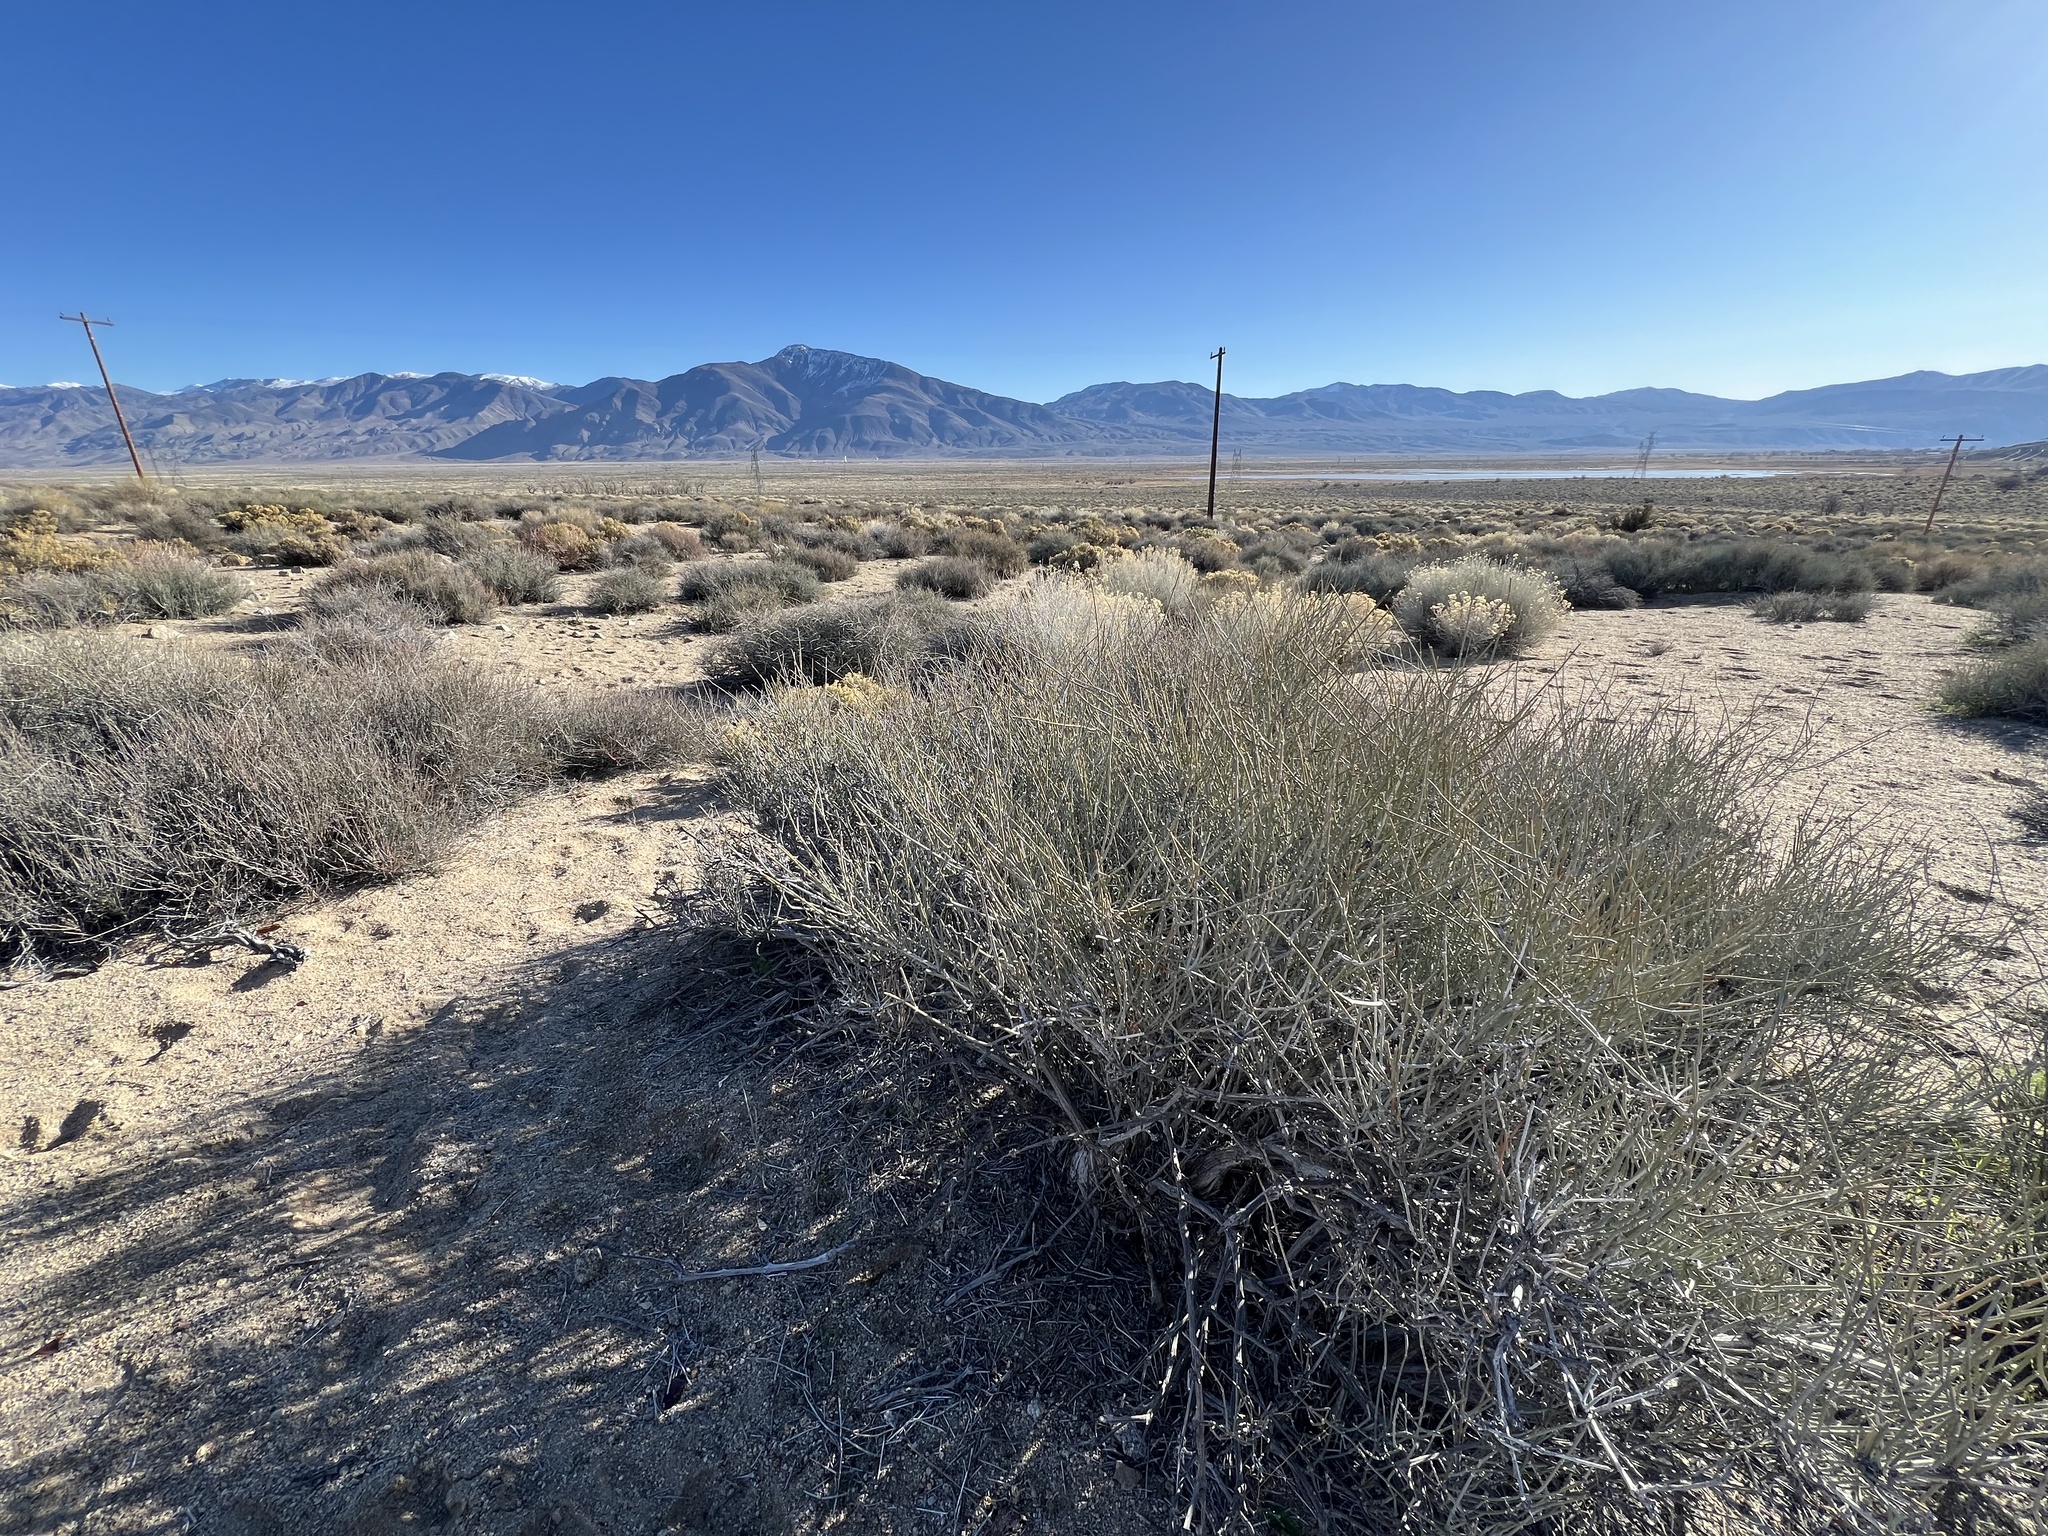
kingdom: Plantae
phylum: Tracheophyta
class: Gnetopsida
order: Ephedrales
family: Ephedraceae
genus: Ephedra
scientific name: Ephedra nevadensis
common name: Gray ephedra
